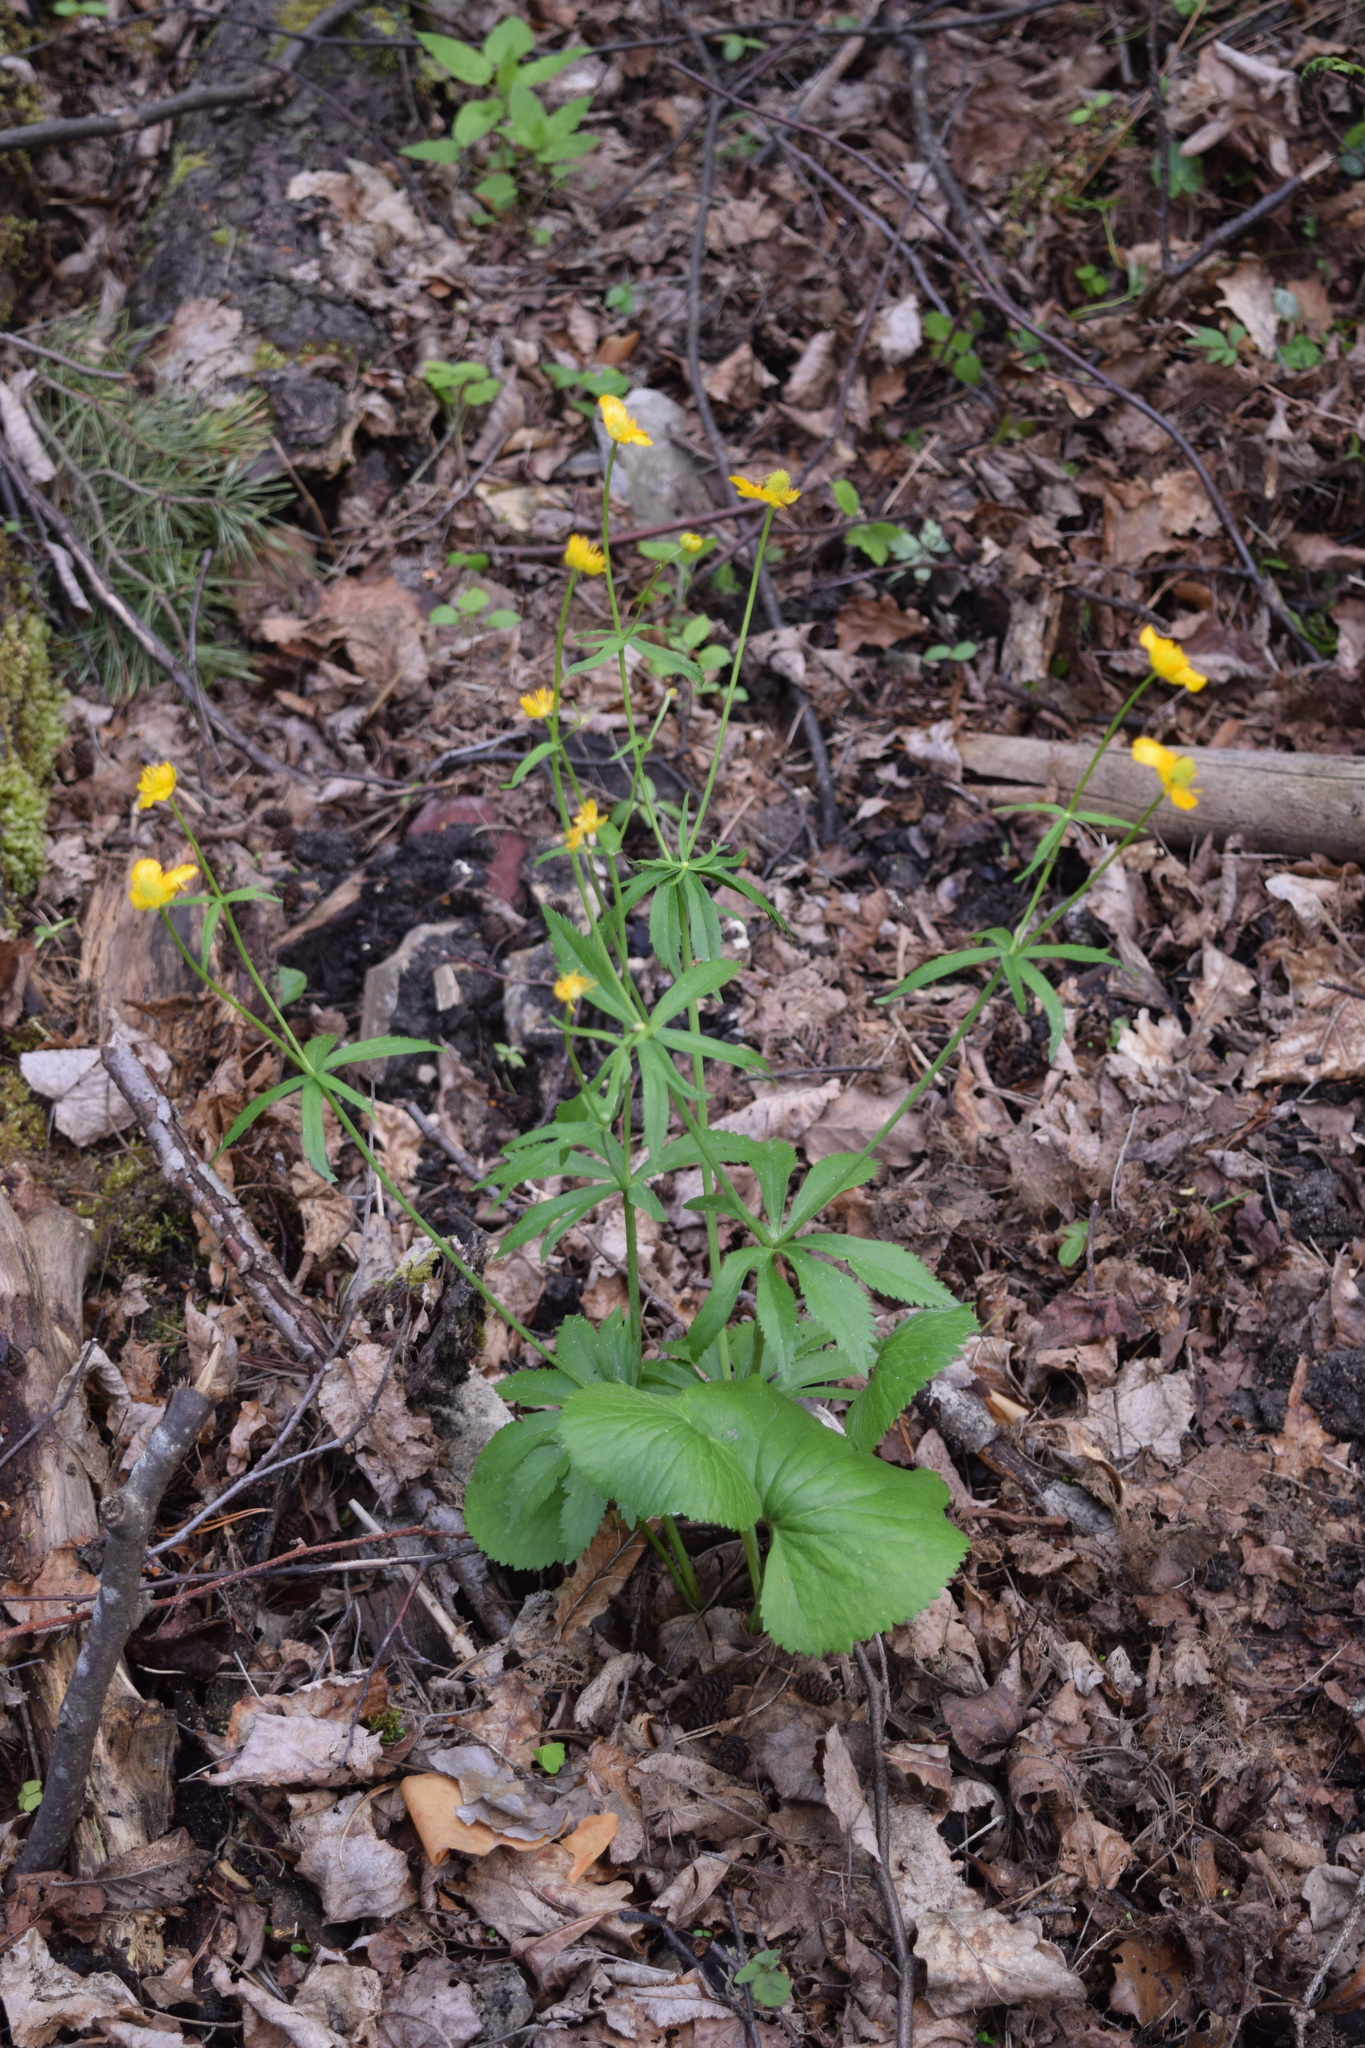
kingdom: Plantae
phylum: Tracheophyta
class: Magnoliopsida
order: Ranunculales
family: Ranunculaceae
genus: Ranunculus
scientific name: Ranunculus cassubicus
